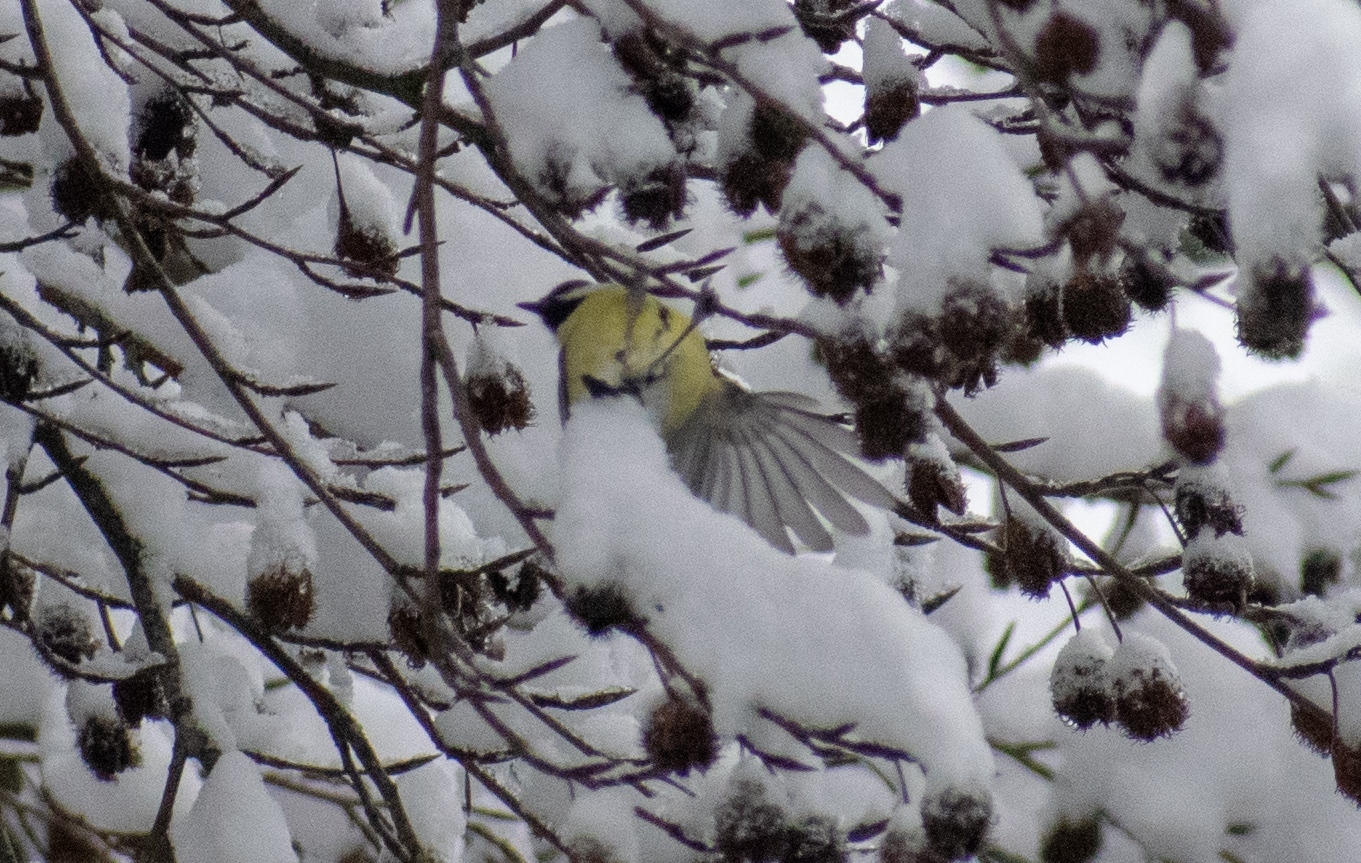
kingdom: Animalia
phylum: Chordata
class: Aves
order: Passeriformes
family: Paridae
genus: Parus
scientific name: Parus major
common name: Great tit
